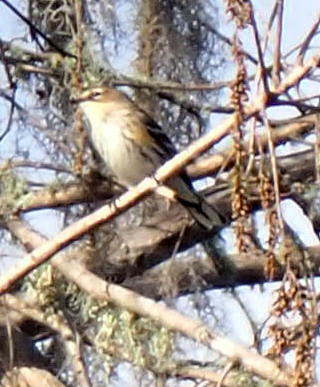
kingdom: Animalia
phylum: Chordata
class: Aves
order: Passeriformes
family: Parulidae
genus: Setophaga
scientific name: Setophaga coronata
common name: Myrtle warbler
